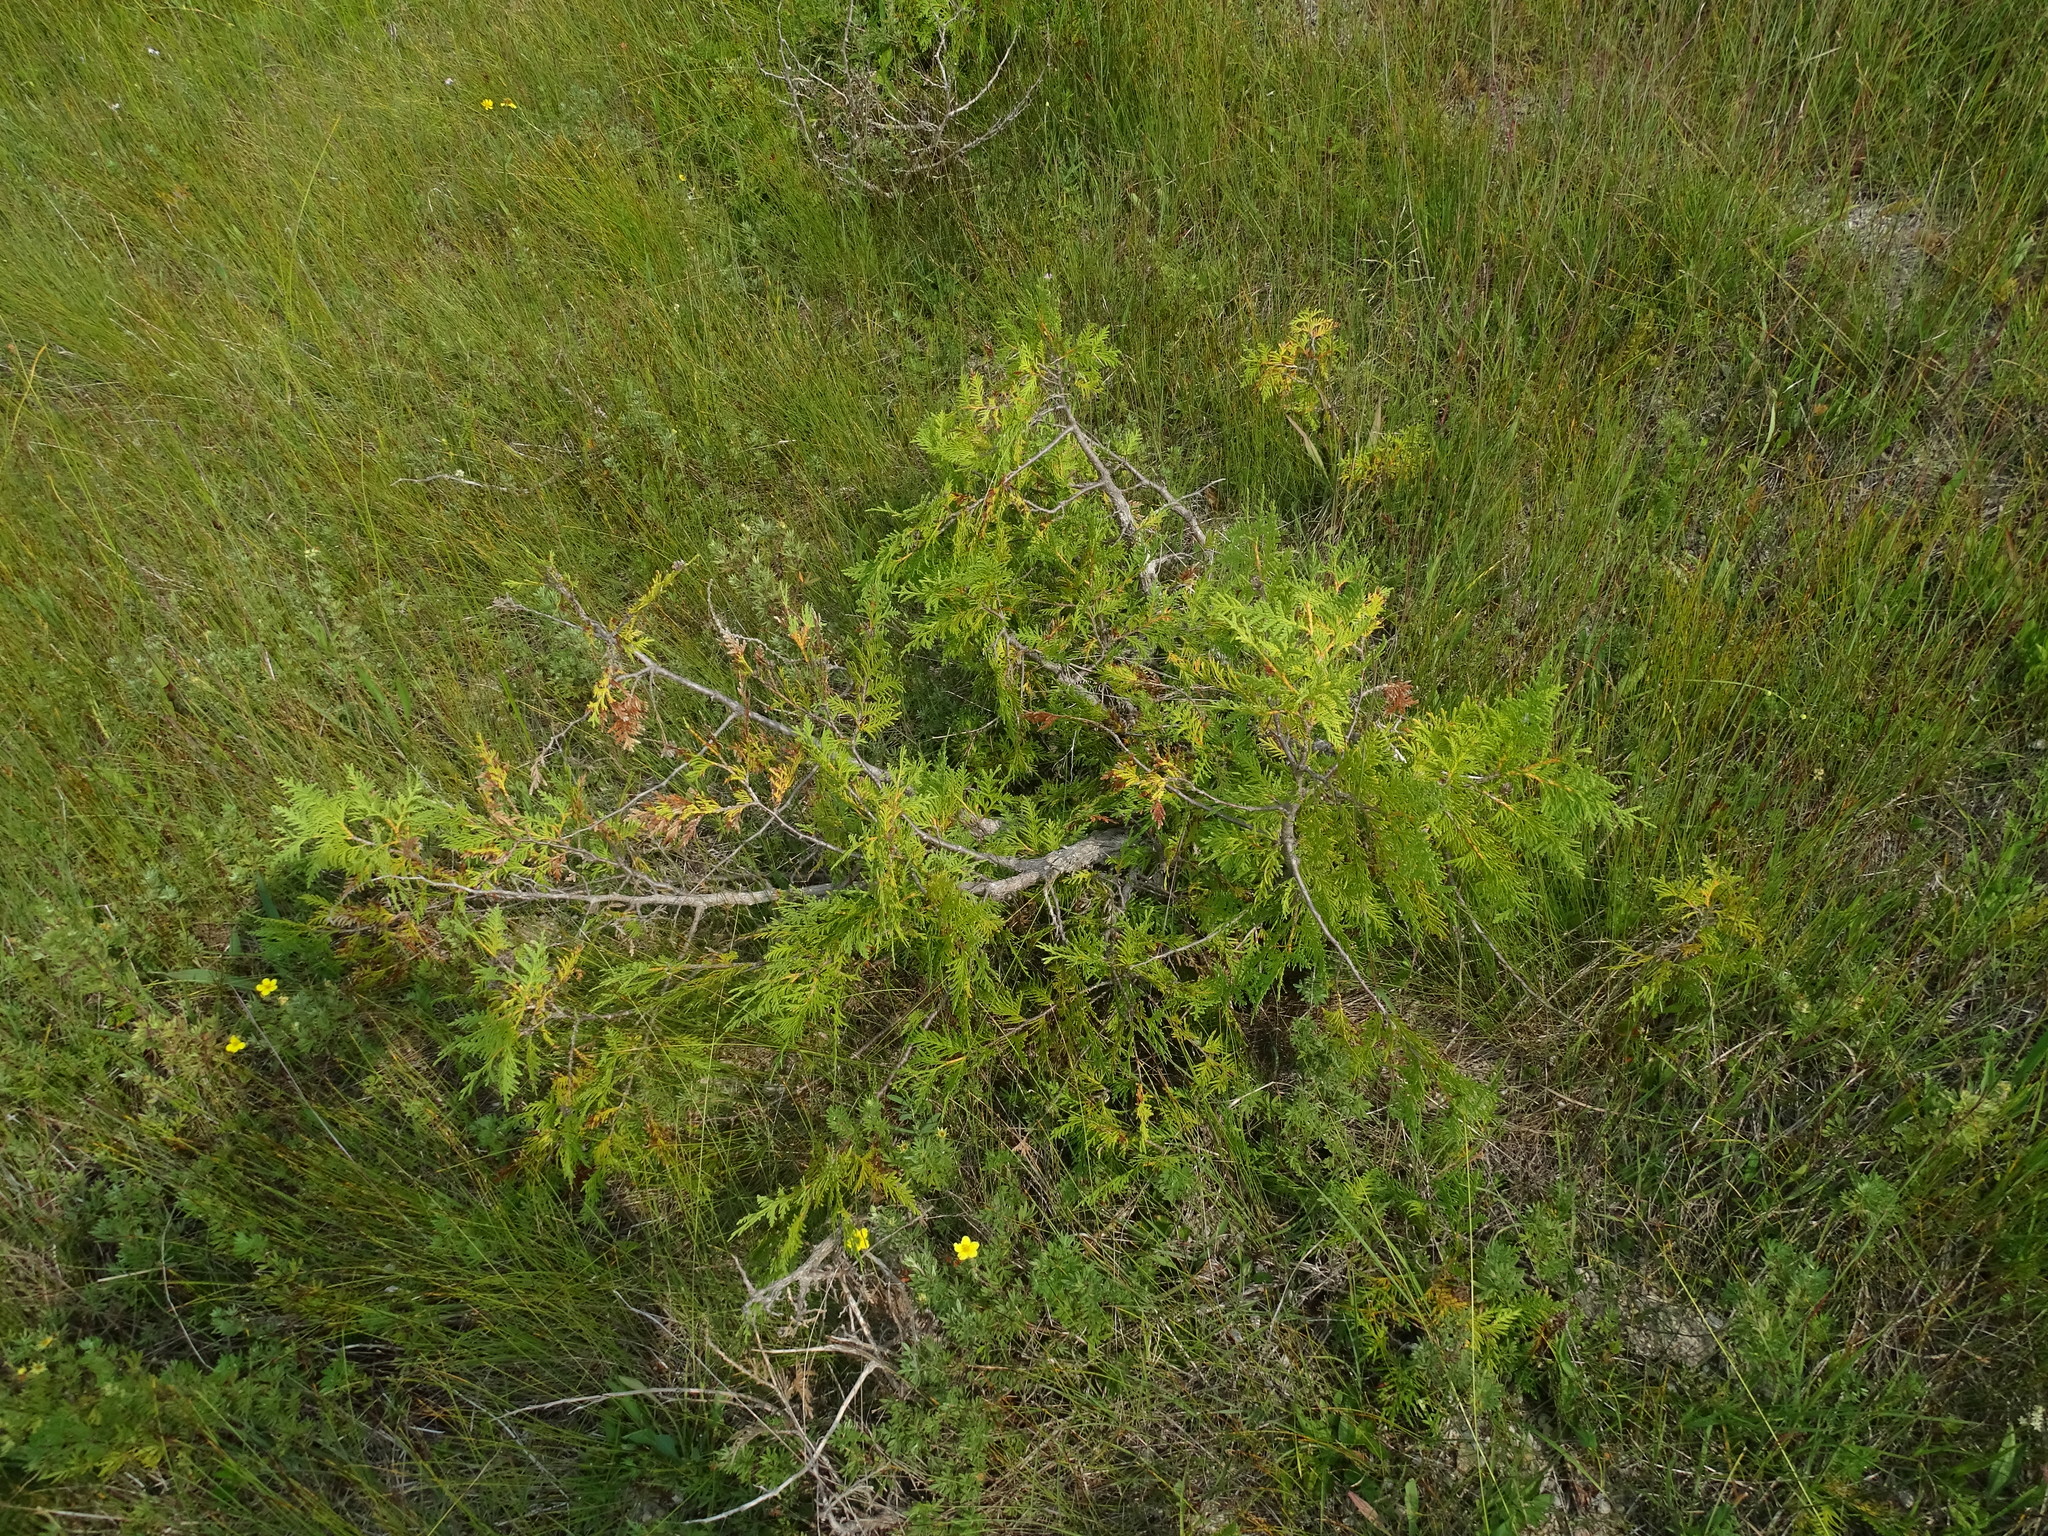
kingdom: Plantae
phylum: Tracheophyta
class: Pinopsida
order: Pinales
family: Cupressaceae
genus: Thuja
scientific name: Thuja occidentalis
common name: Northern white-cedar
